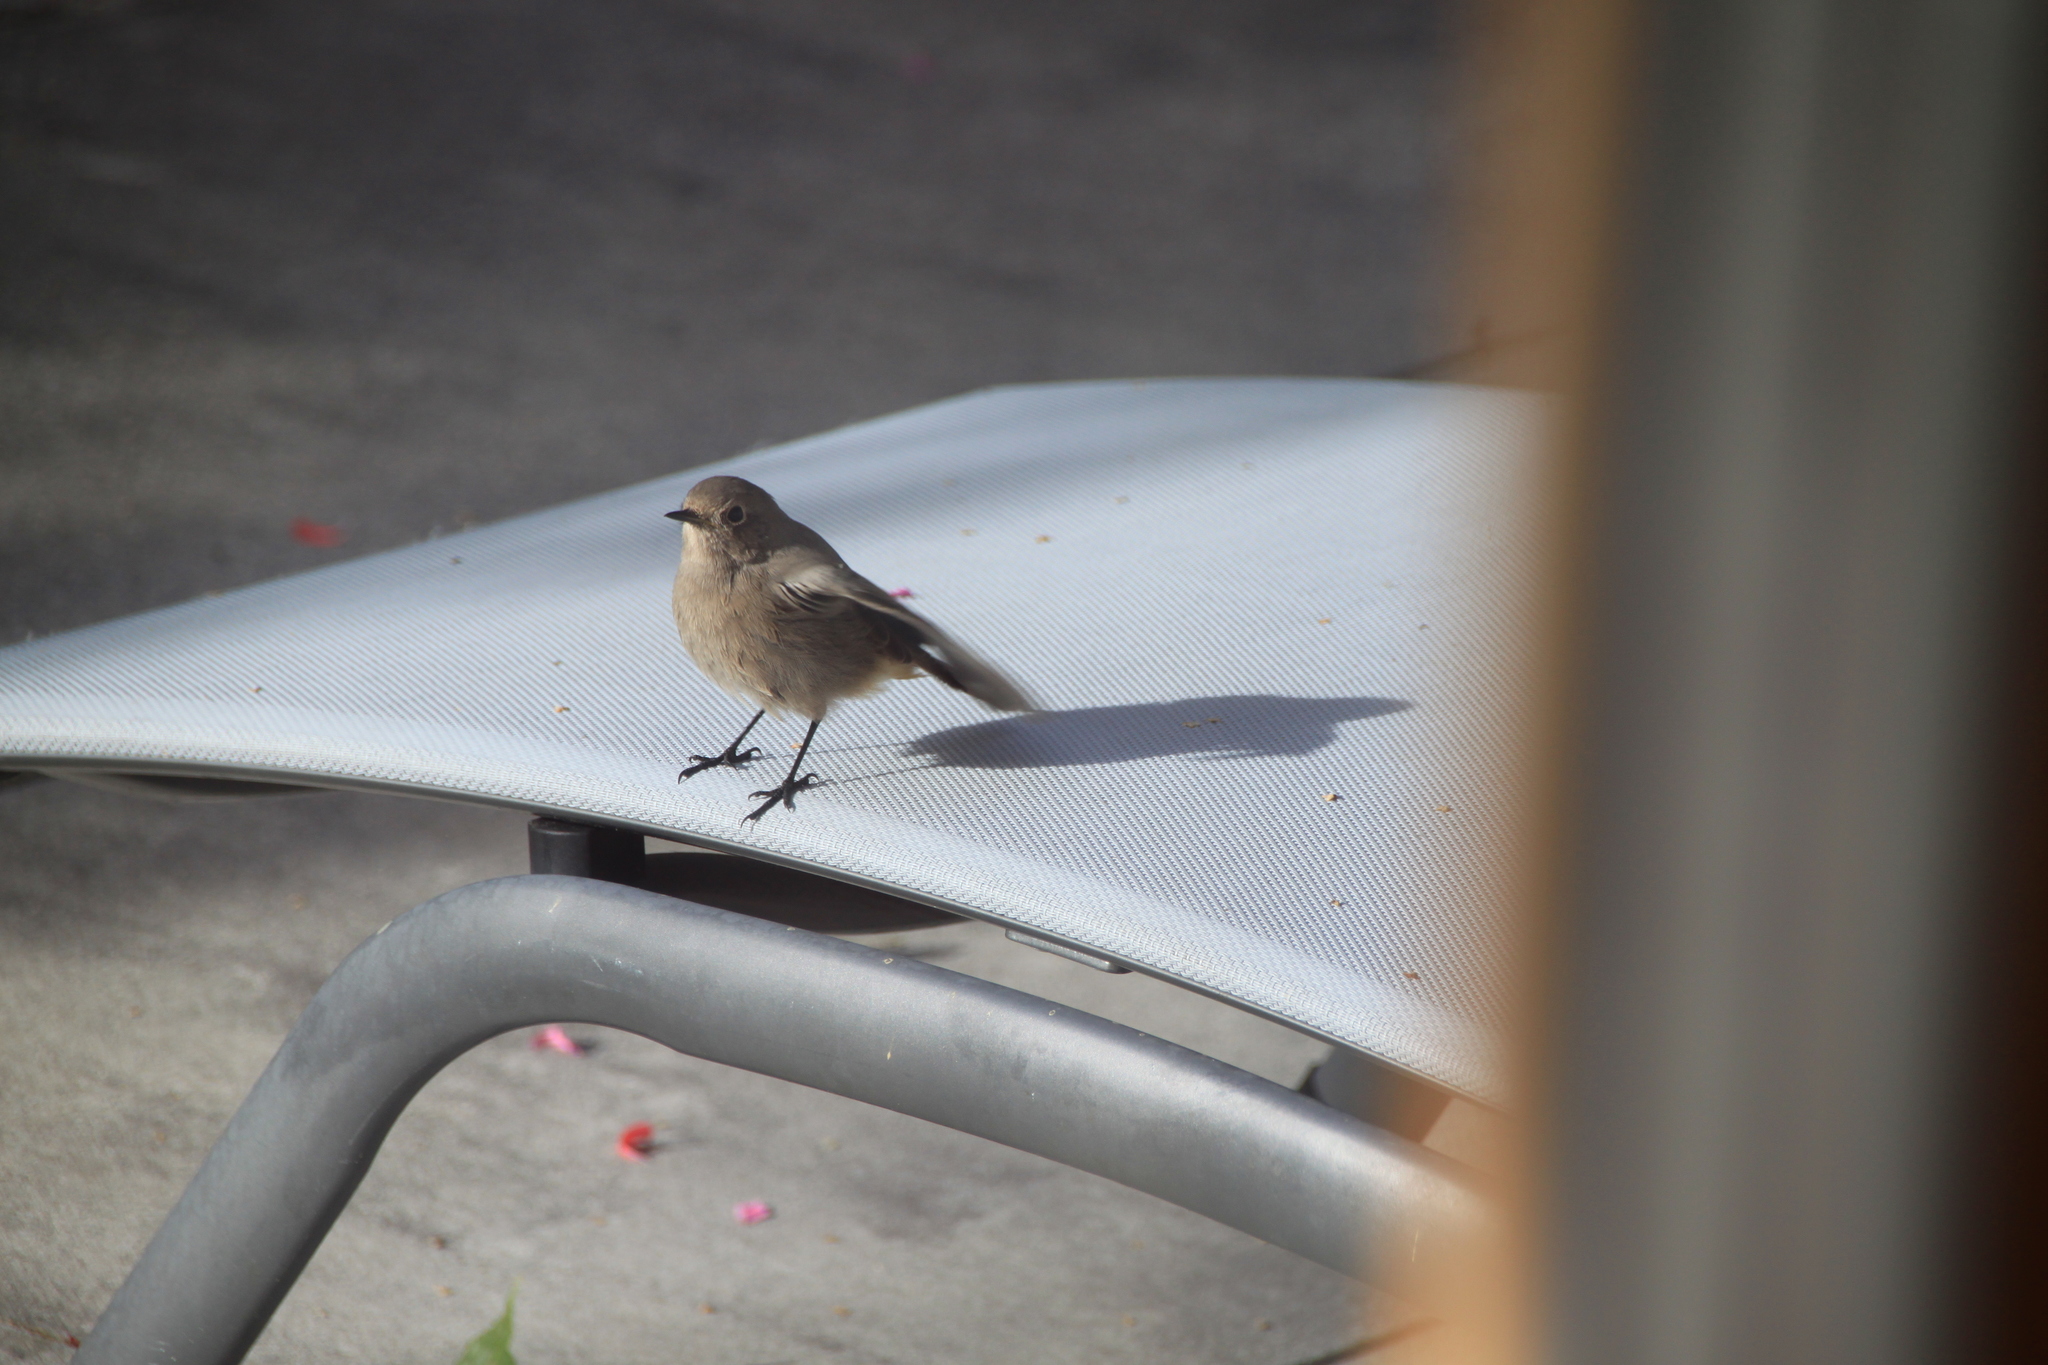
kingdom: Animalia
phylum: Chordata
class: Aves
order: Passeriformes
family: Muscicapidae
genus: Phoenicurus
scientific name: Phoenicurus ochruros
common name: Black redstart
